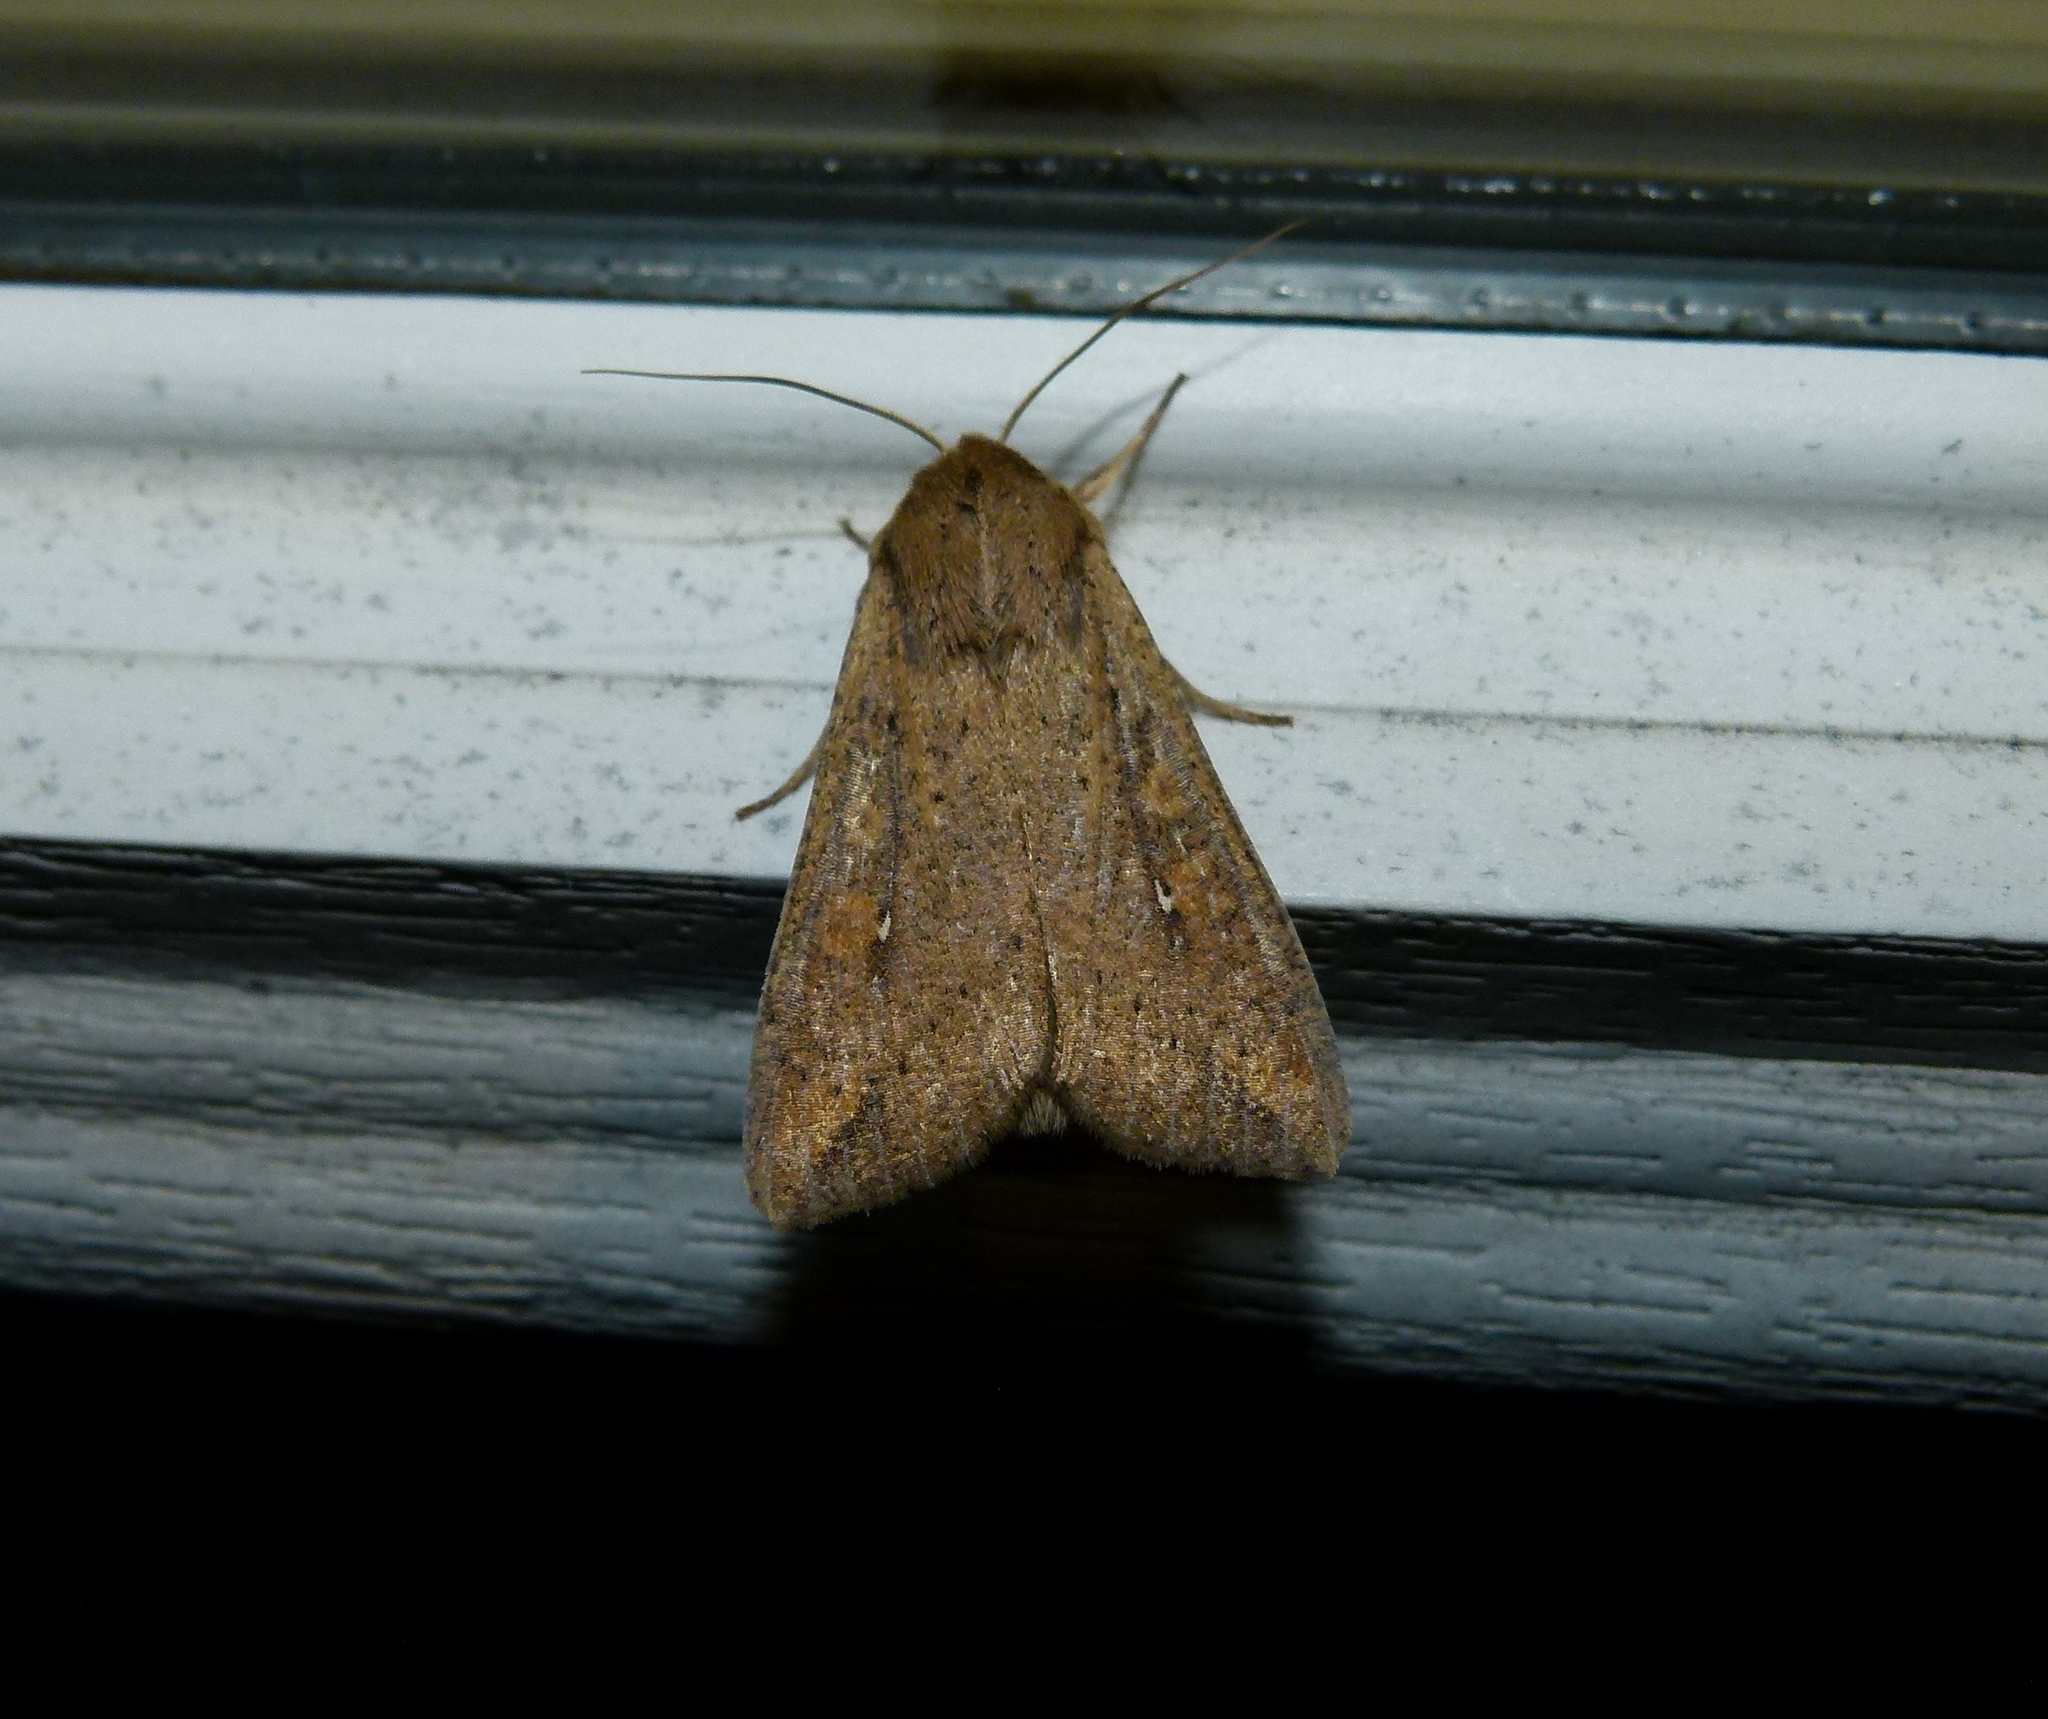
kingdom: Animalia
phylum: Arthropoda
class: Insecta
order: Lepidoptera
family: Noctuidae
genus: Mythimna
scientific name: Mythimna unipuncta
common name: White-speck
